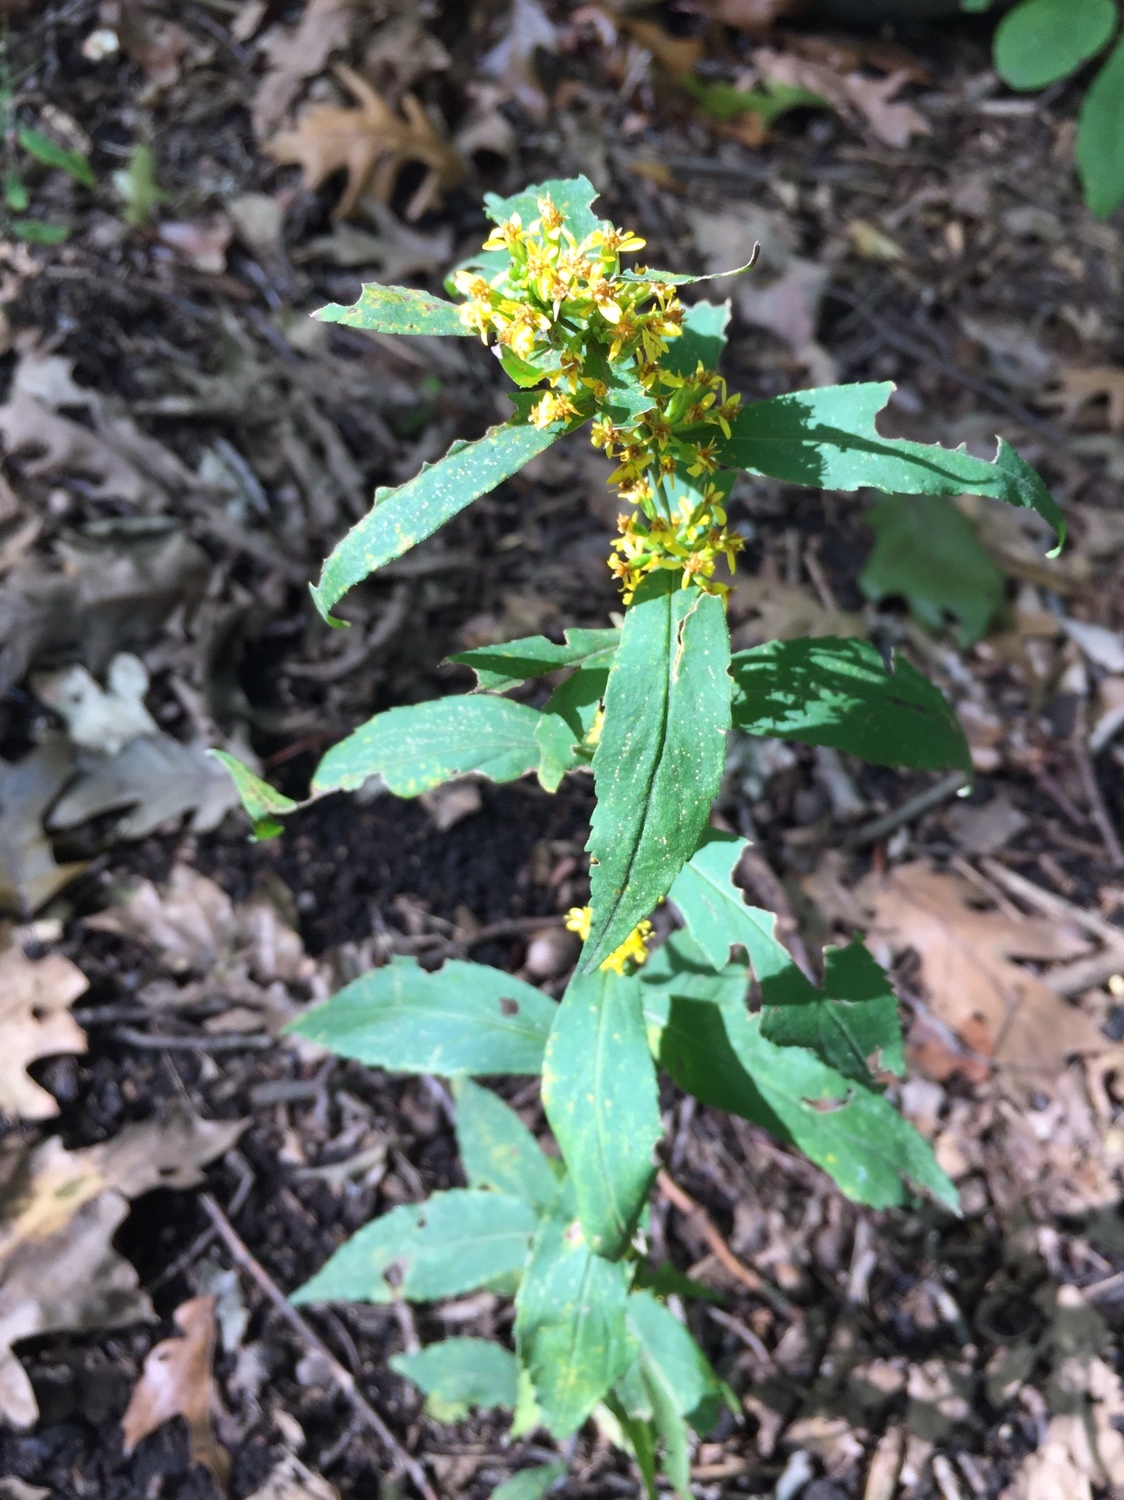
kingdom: Plantae
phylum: Tracheophyta
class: Magnoliopsida
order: Asterales
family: Asteraceae
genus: Solidago
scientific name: Solidago caesia
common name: Woodland goldenrod
